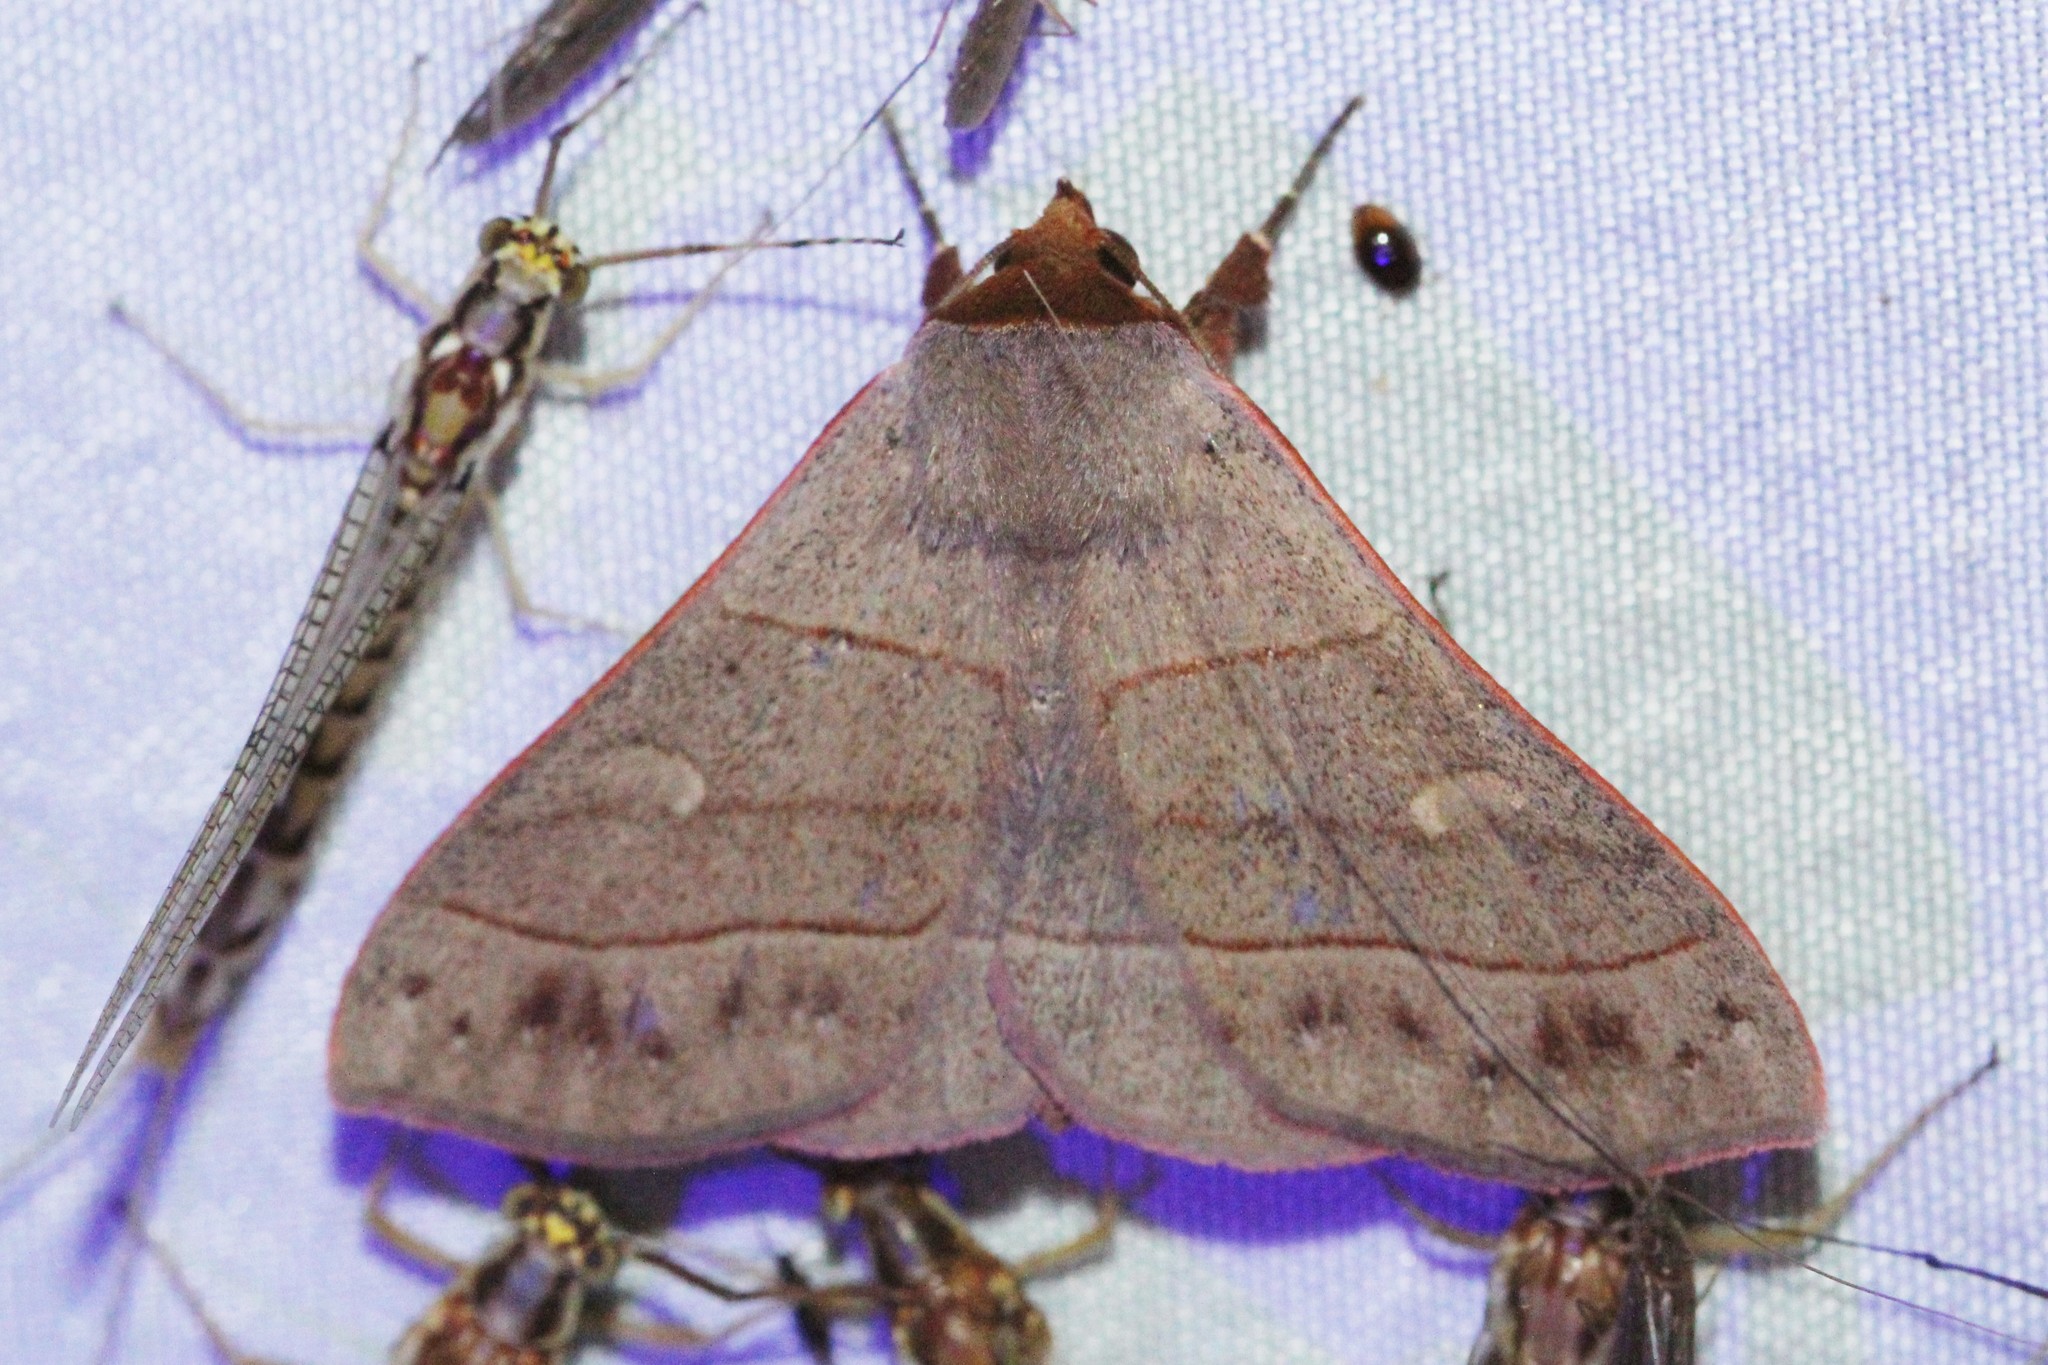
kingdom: Animalia
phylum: Arthropoda
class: Insecta
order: Lepidoptera
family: Erebidae
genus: Panopoda
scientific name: Panopoda rufimargo
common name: Red-lined panopoda moth
